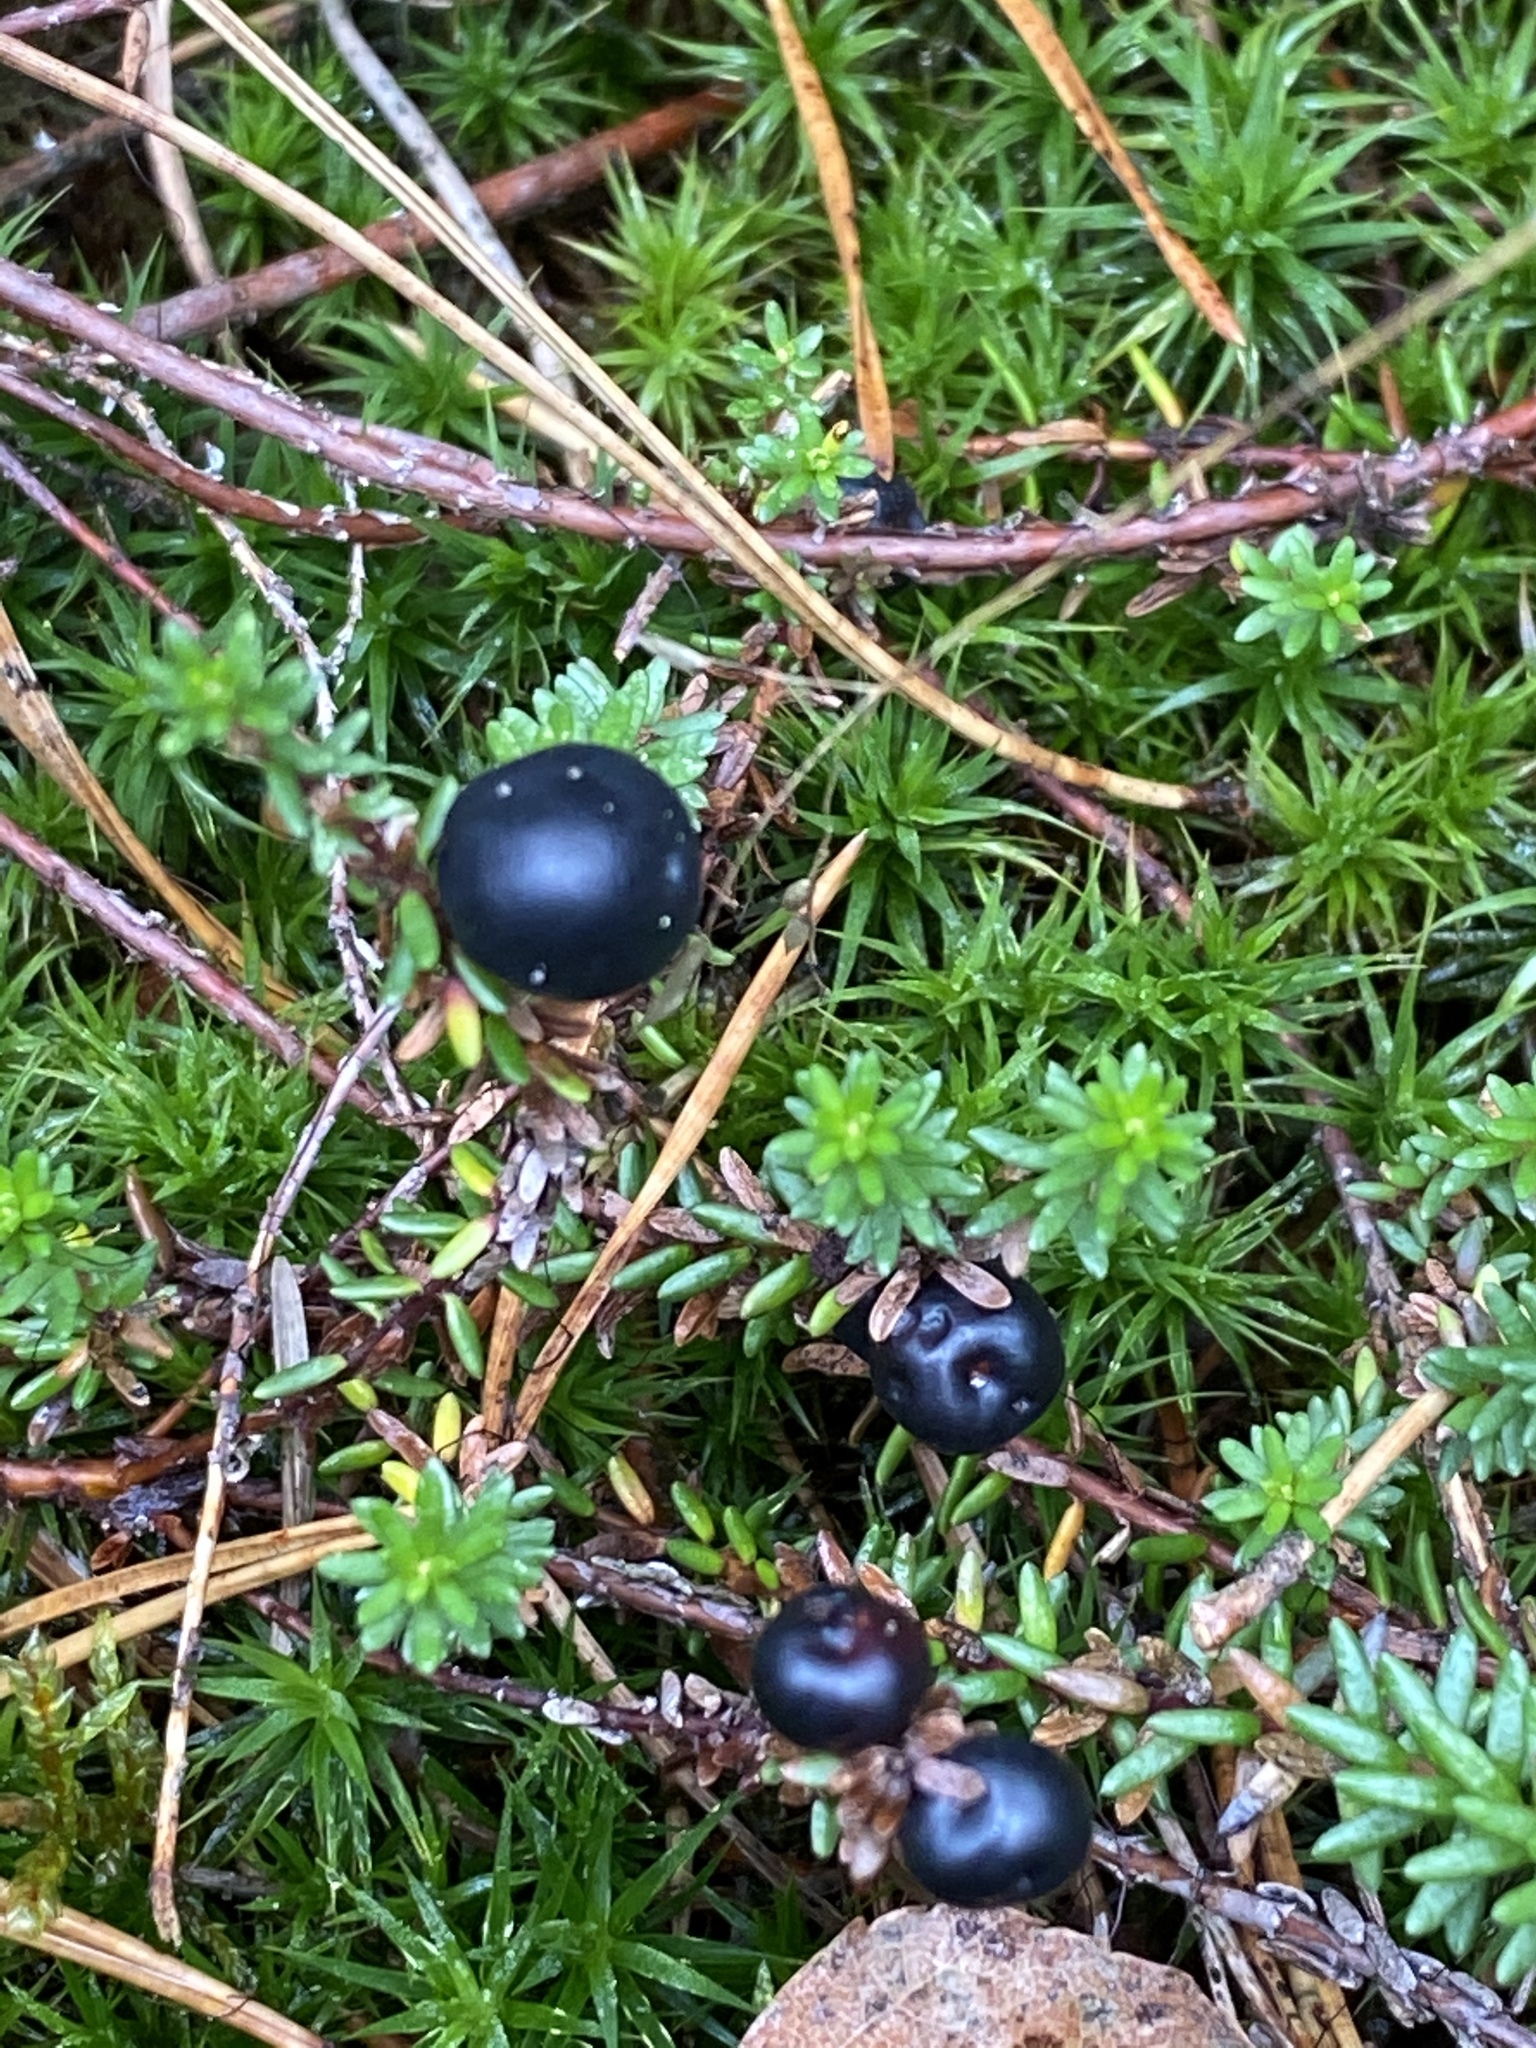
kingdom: Plantae
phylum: Tracheophyta
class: Magnoliopsida
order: Ericales
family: Ericaceae
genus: Empetrum
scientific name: Empetrum nigrum
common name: Black crowberry
